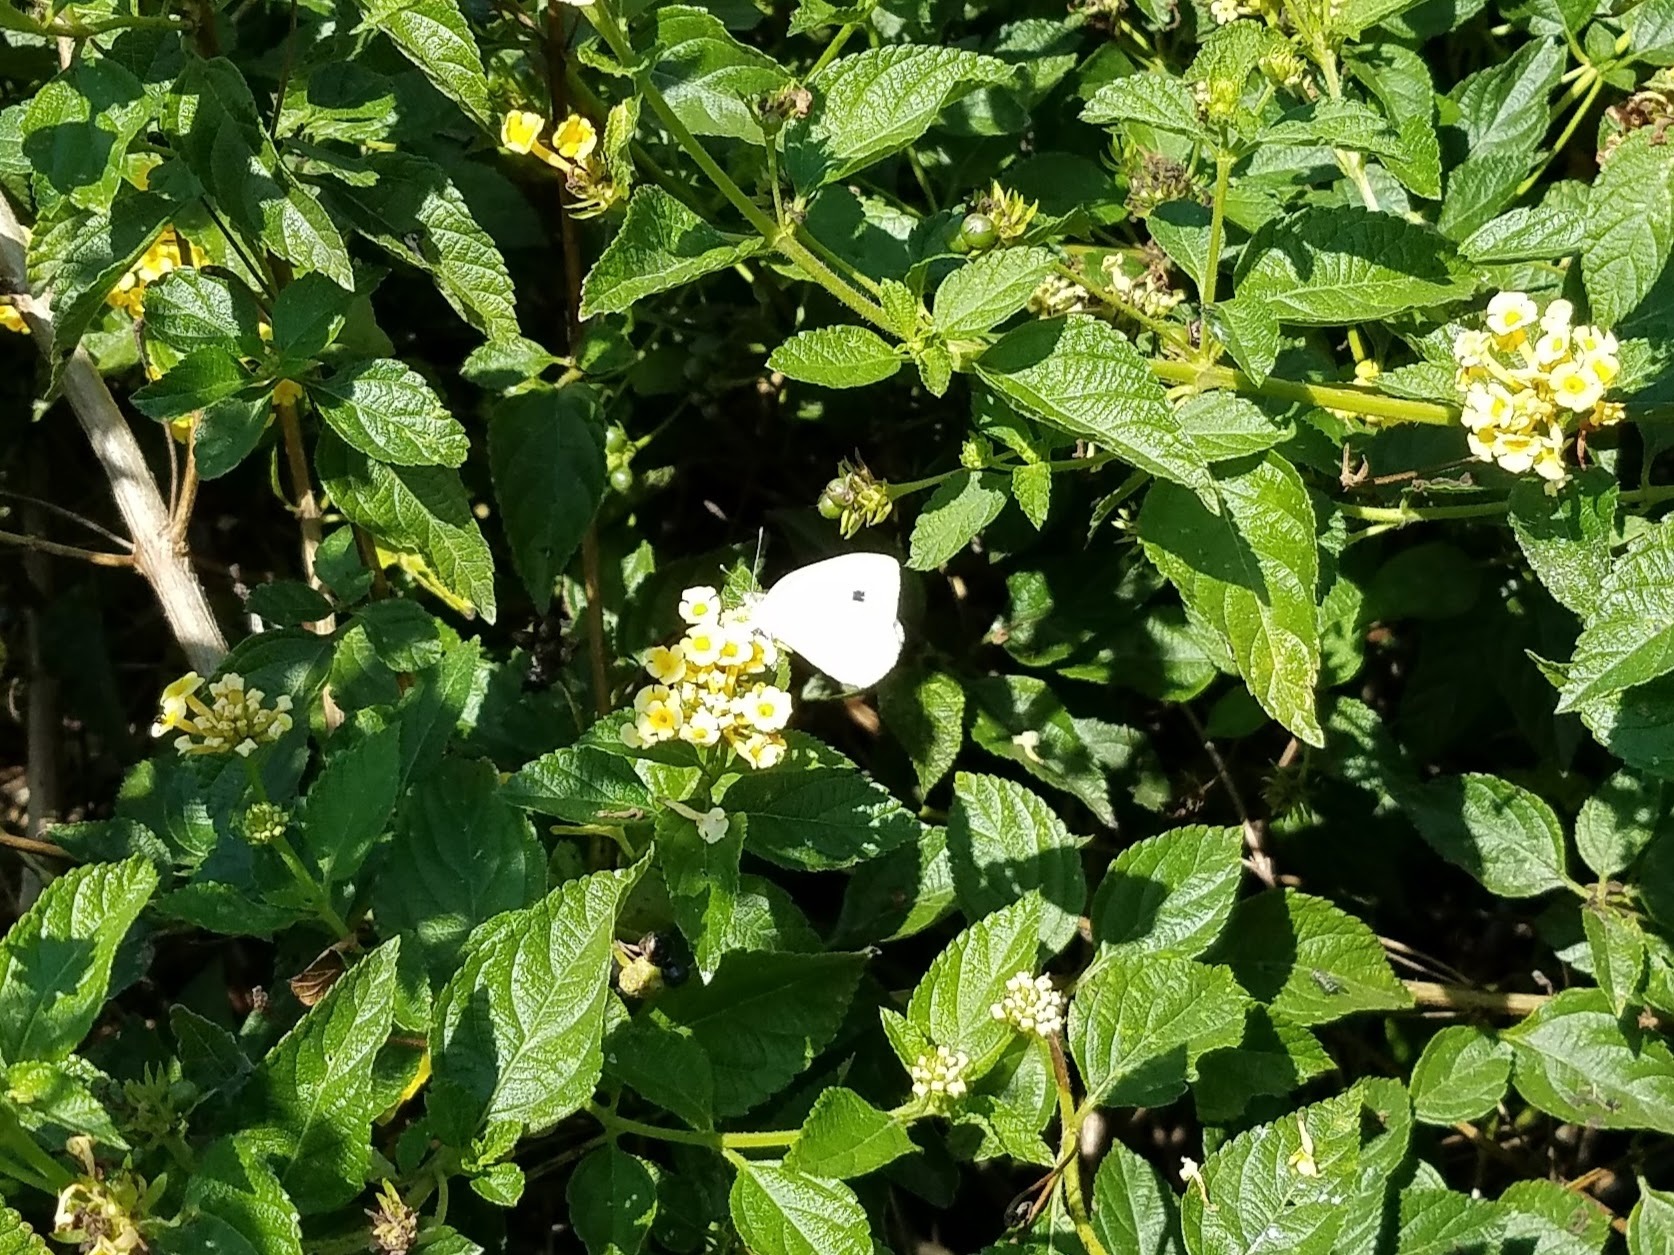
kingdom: Animalia
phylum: Arthropoda
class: Insecta
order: Lepidoptera
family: Pieridae
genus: Pieris
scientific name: Pieris rapae
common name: Small white
